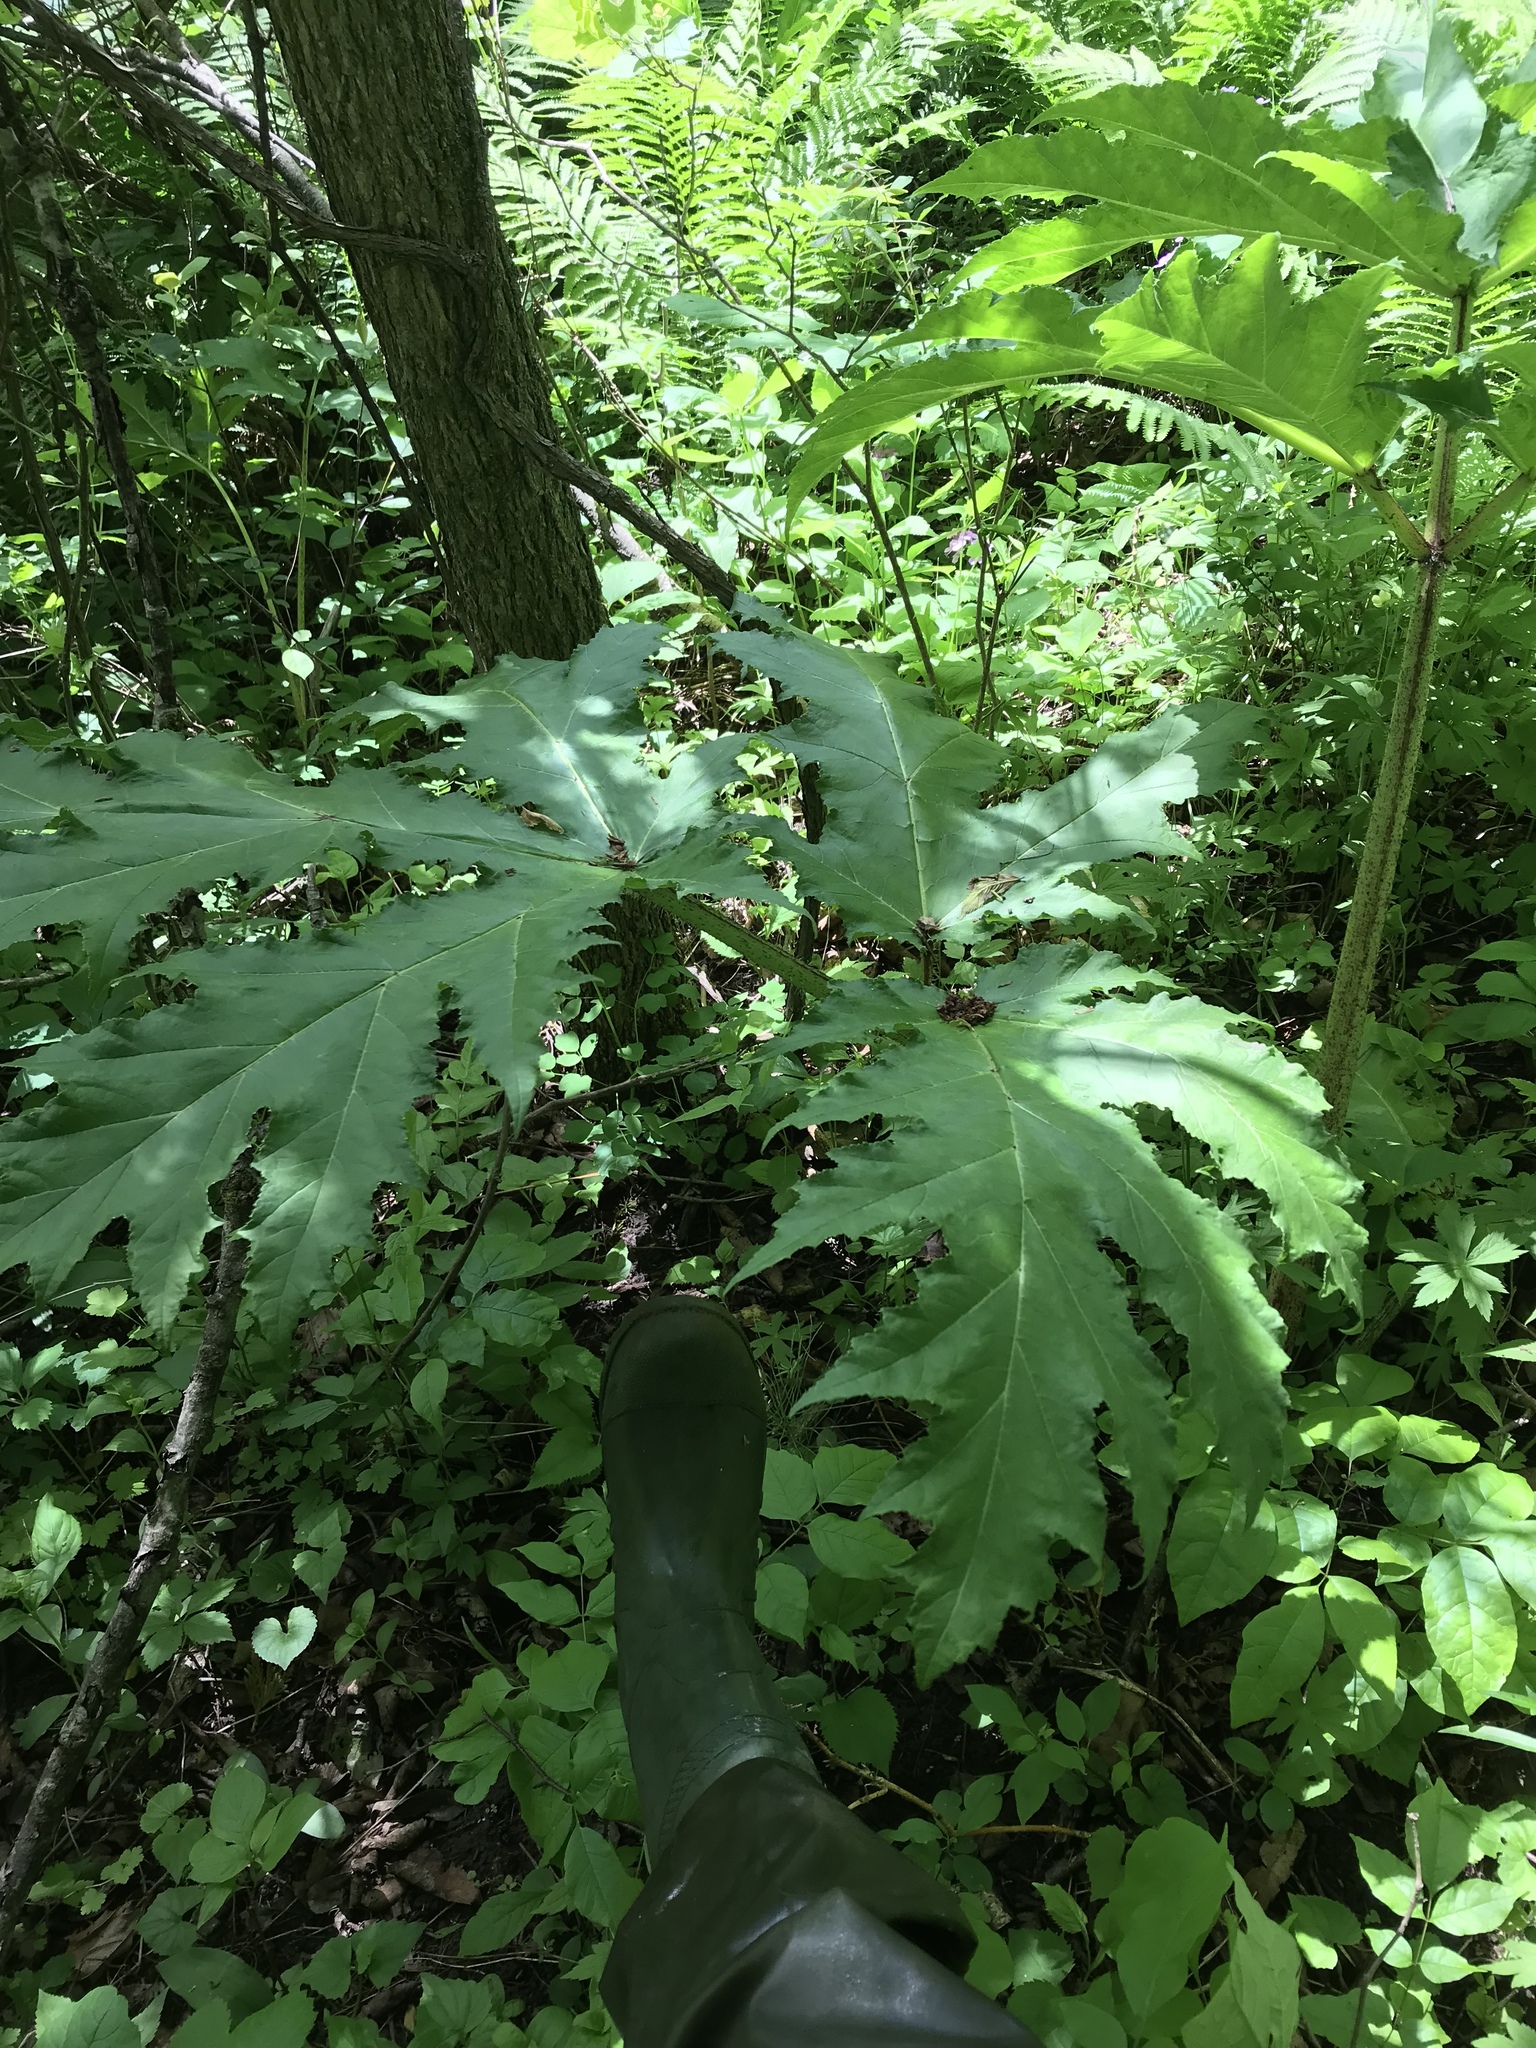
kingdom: Plantae
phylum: Tracheophyta
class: Magnoliopsida
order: Apiales
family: Apiaceae
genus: Heracleum
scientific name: Heracleum mantegazzianum
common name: Giant hogweed
